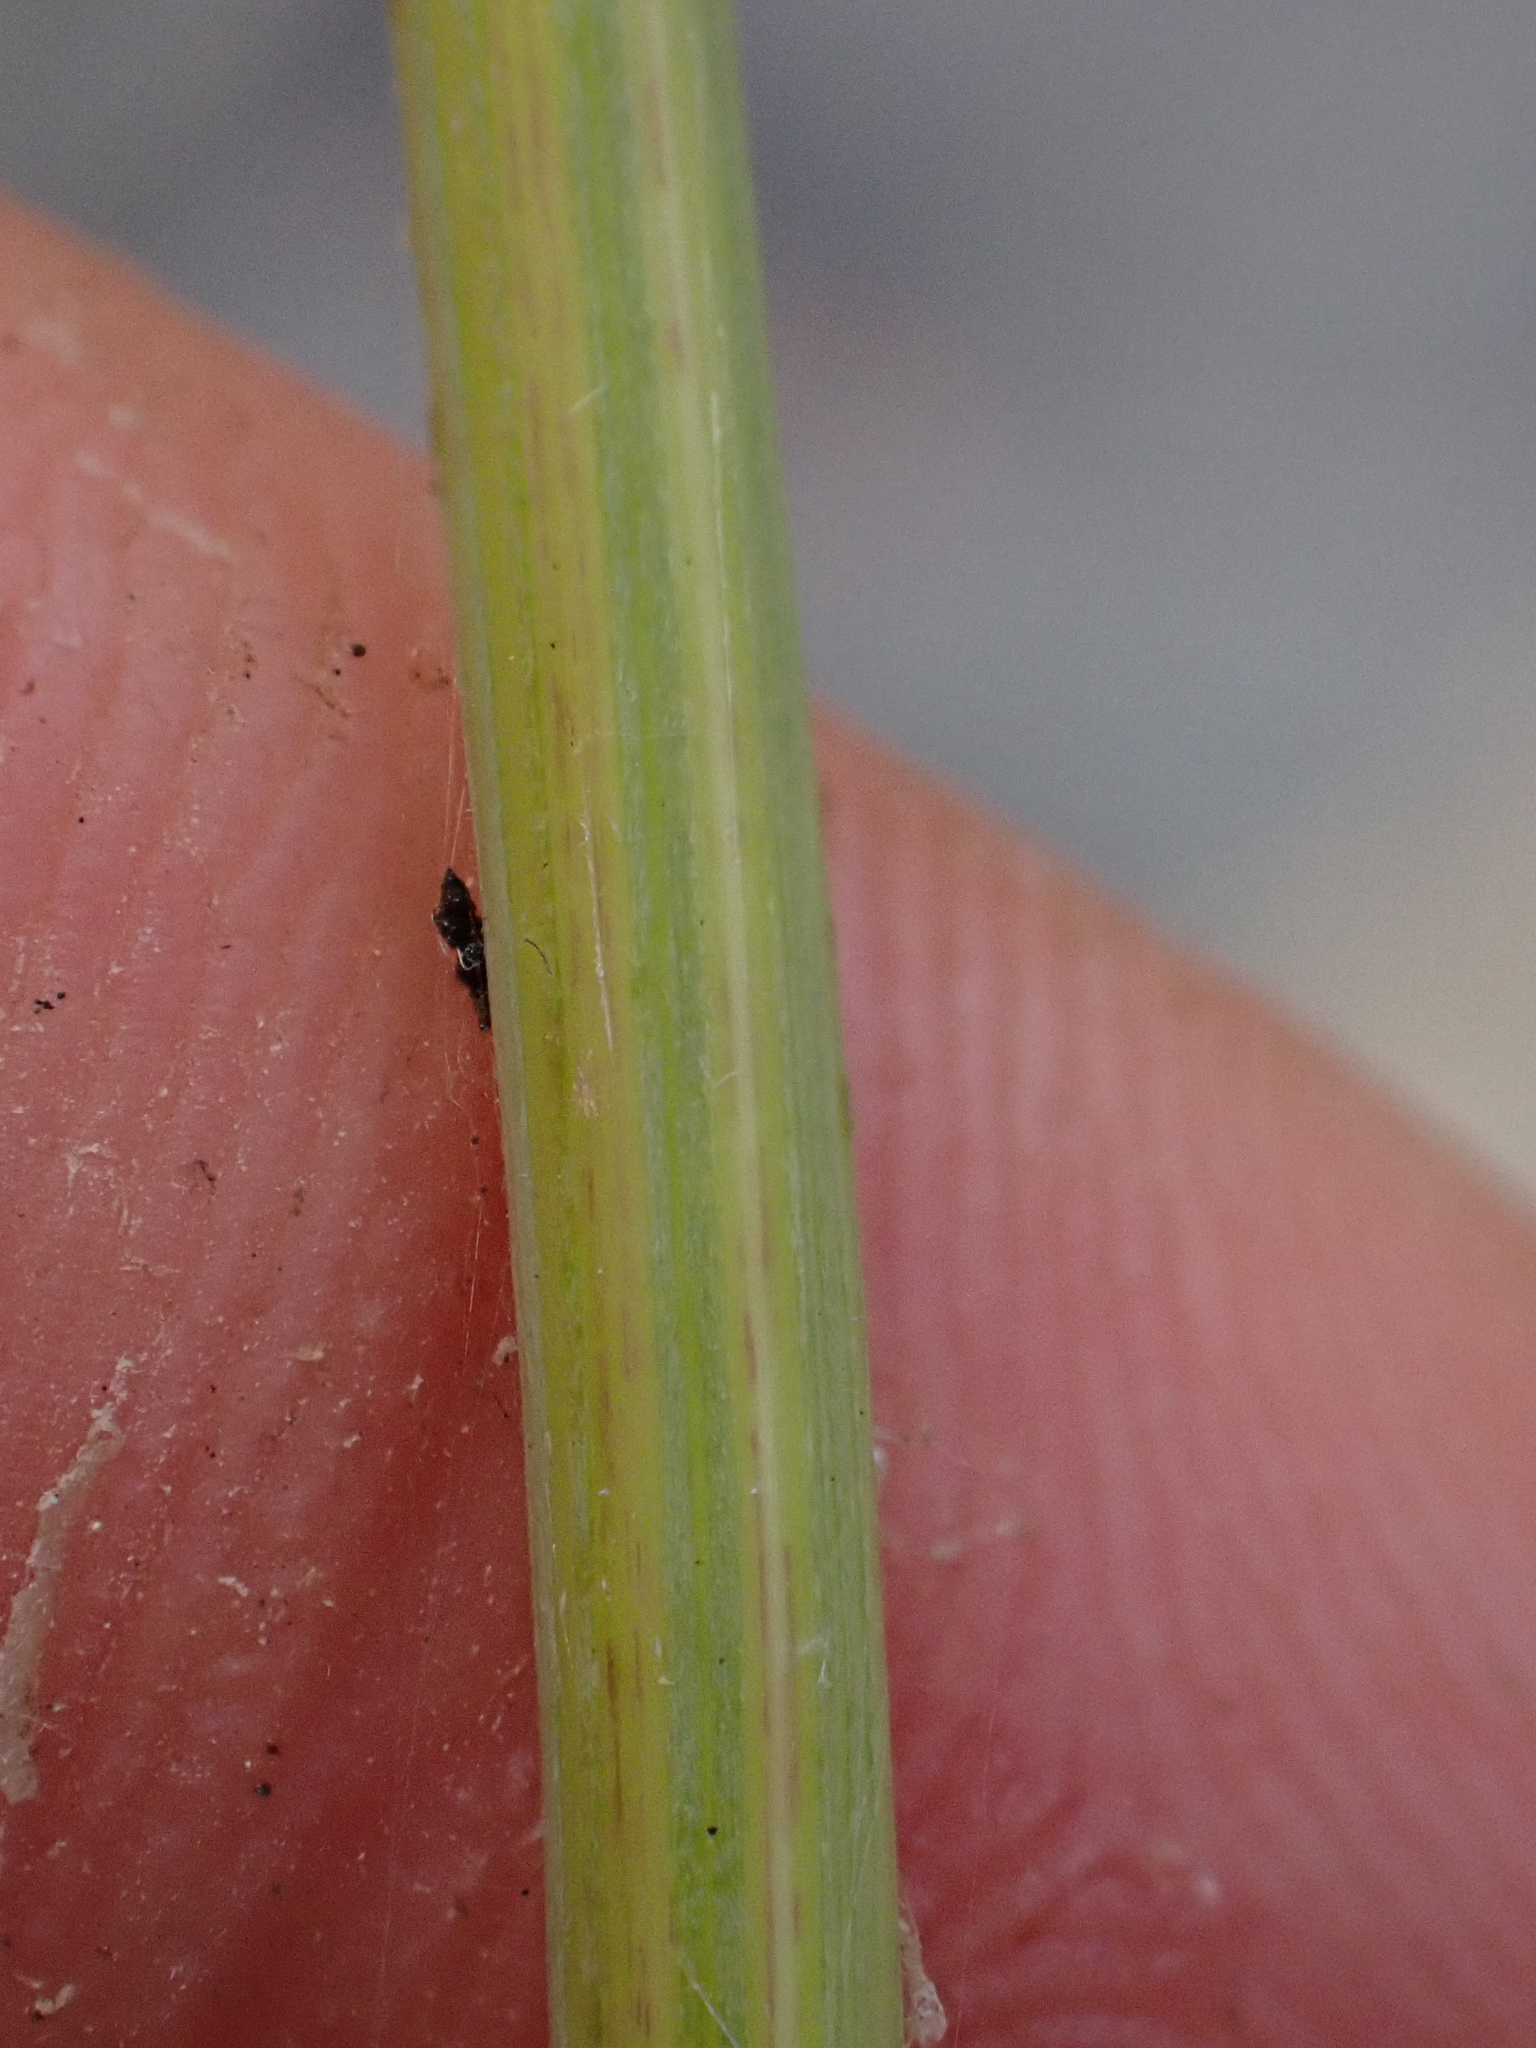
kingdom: Plantae
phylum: Tracheophyta
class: Liliopsida
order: Poales
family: Juncaceae
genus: Juncus
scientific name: Juncus ensifolius
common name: Sword-leaved rush
